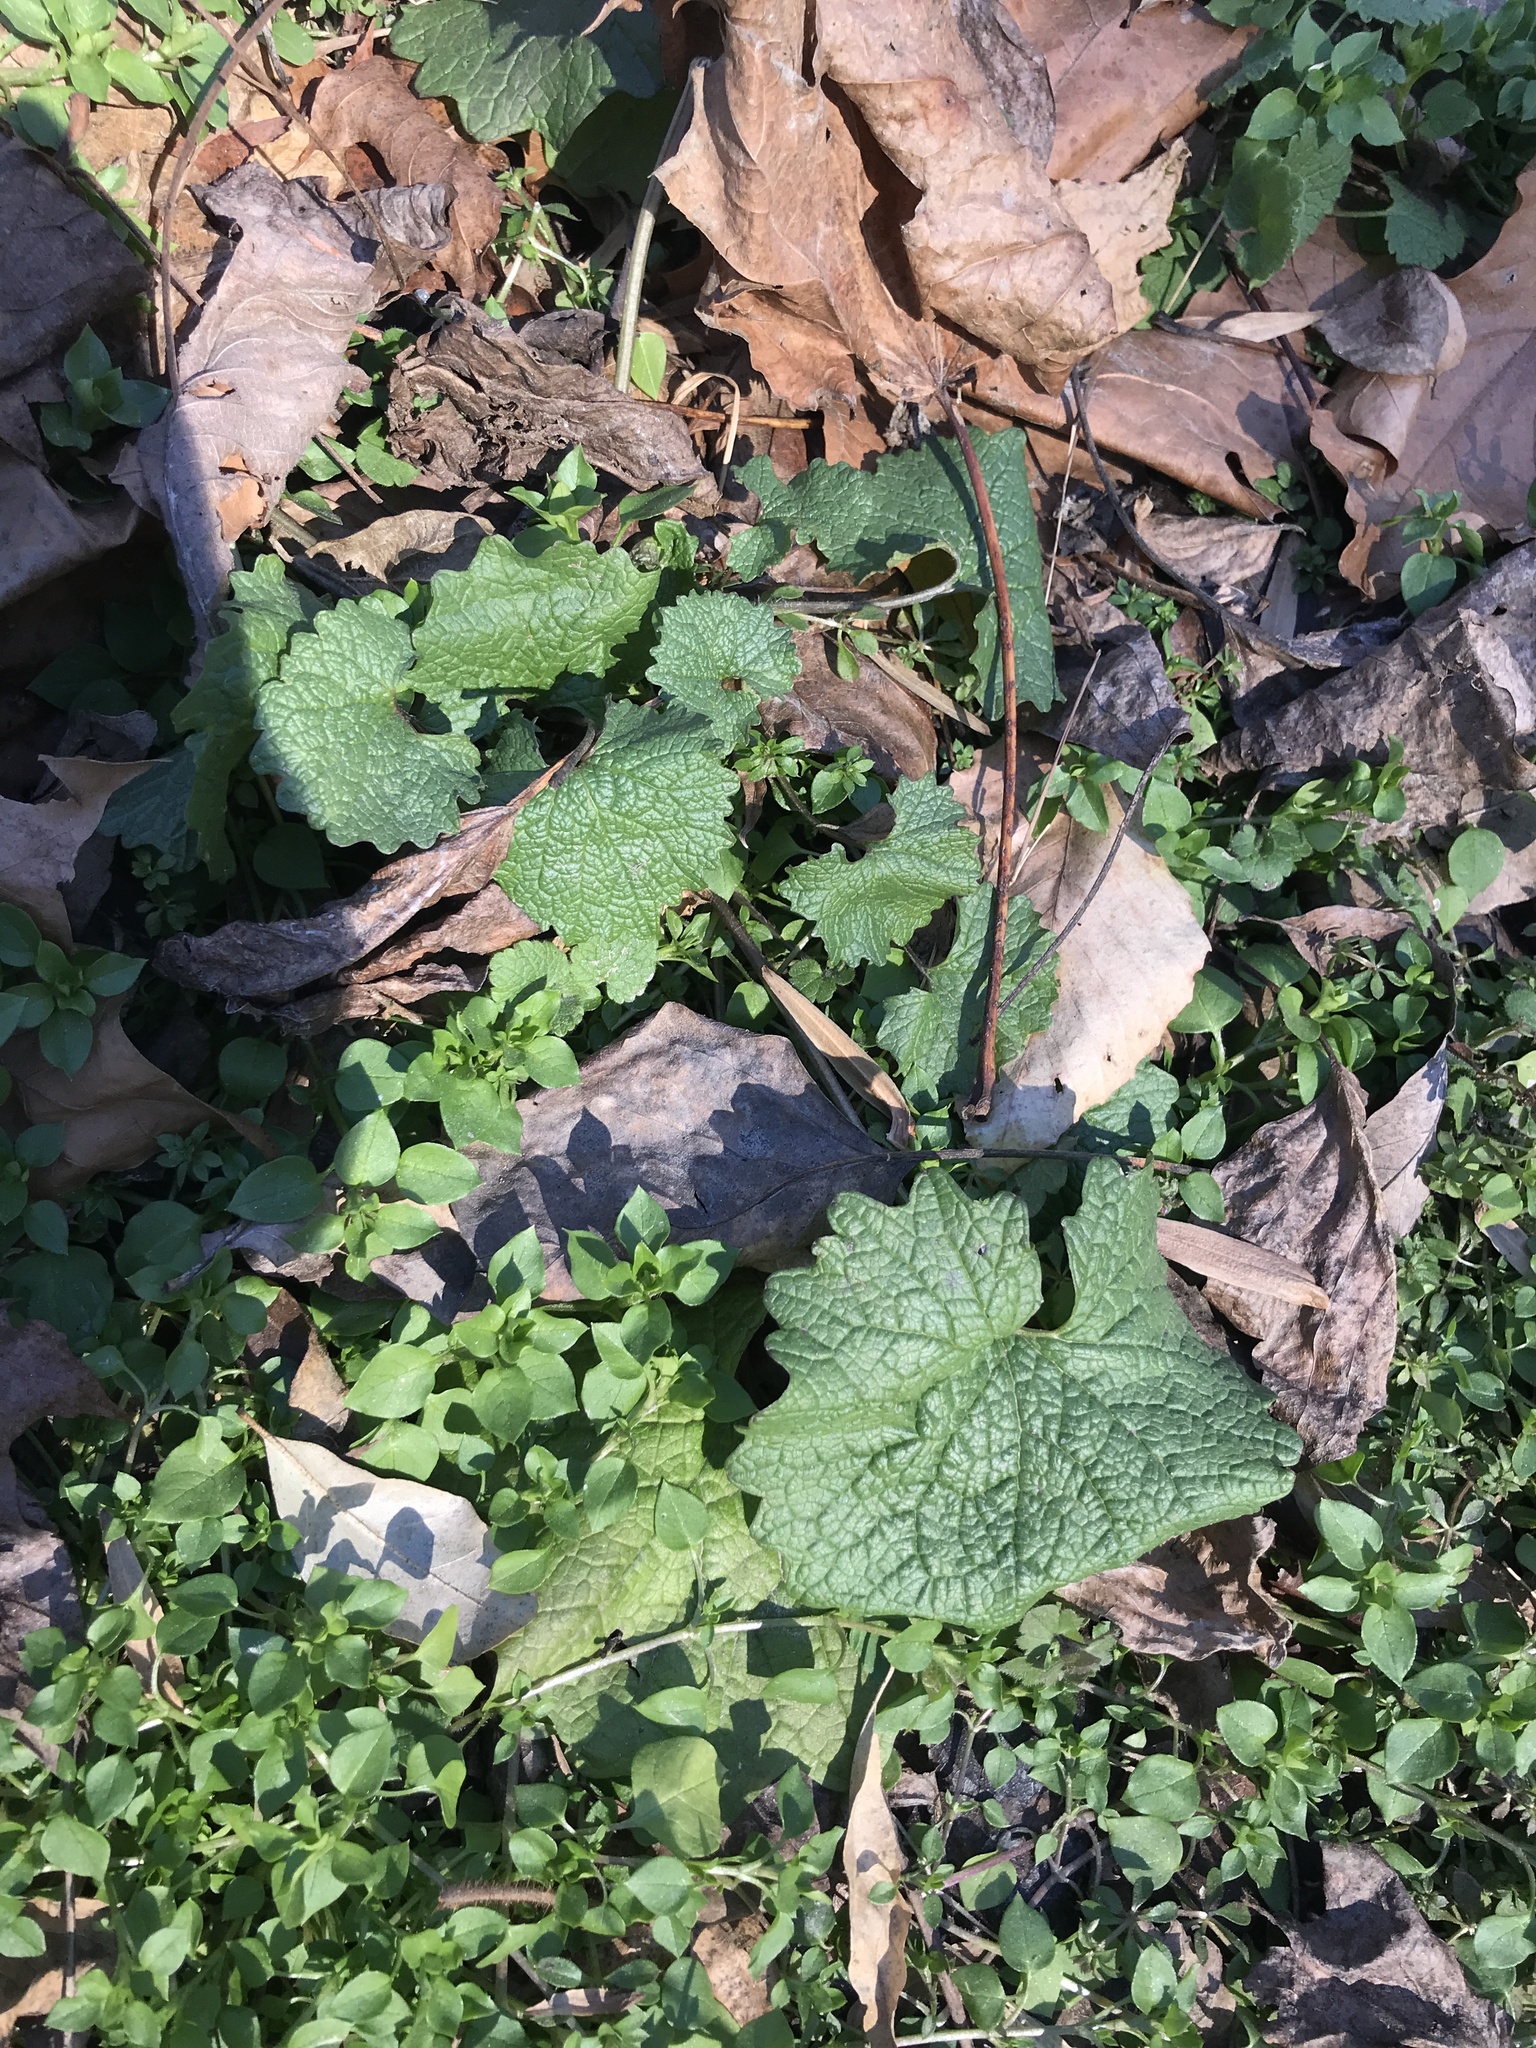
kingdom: Plantae
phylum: Tracheophyta
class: Magnoliopsida
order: Brassicales
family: Brassicaceae
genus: Alliaria
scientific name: Alliaria petiolata
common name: Garlic mustard
